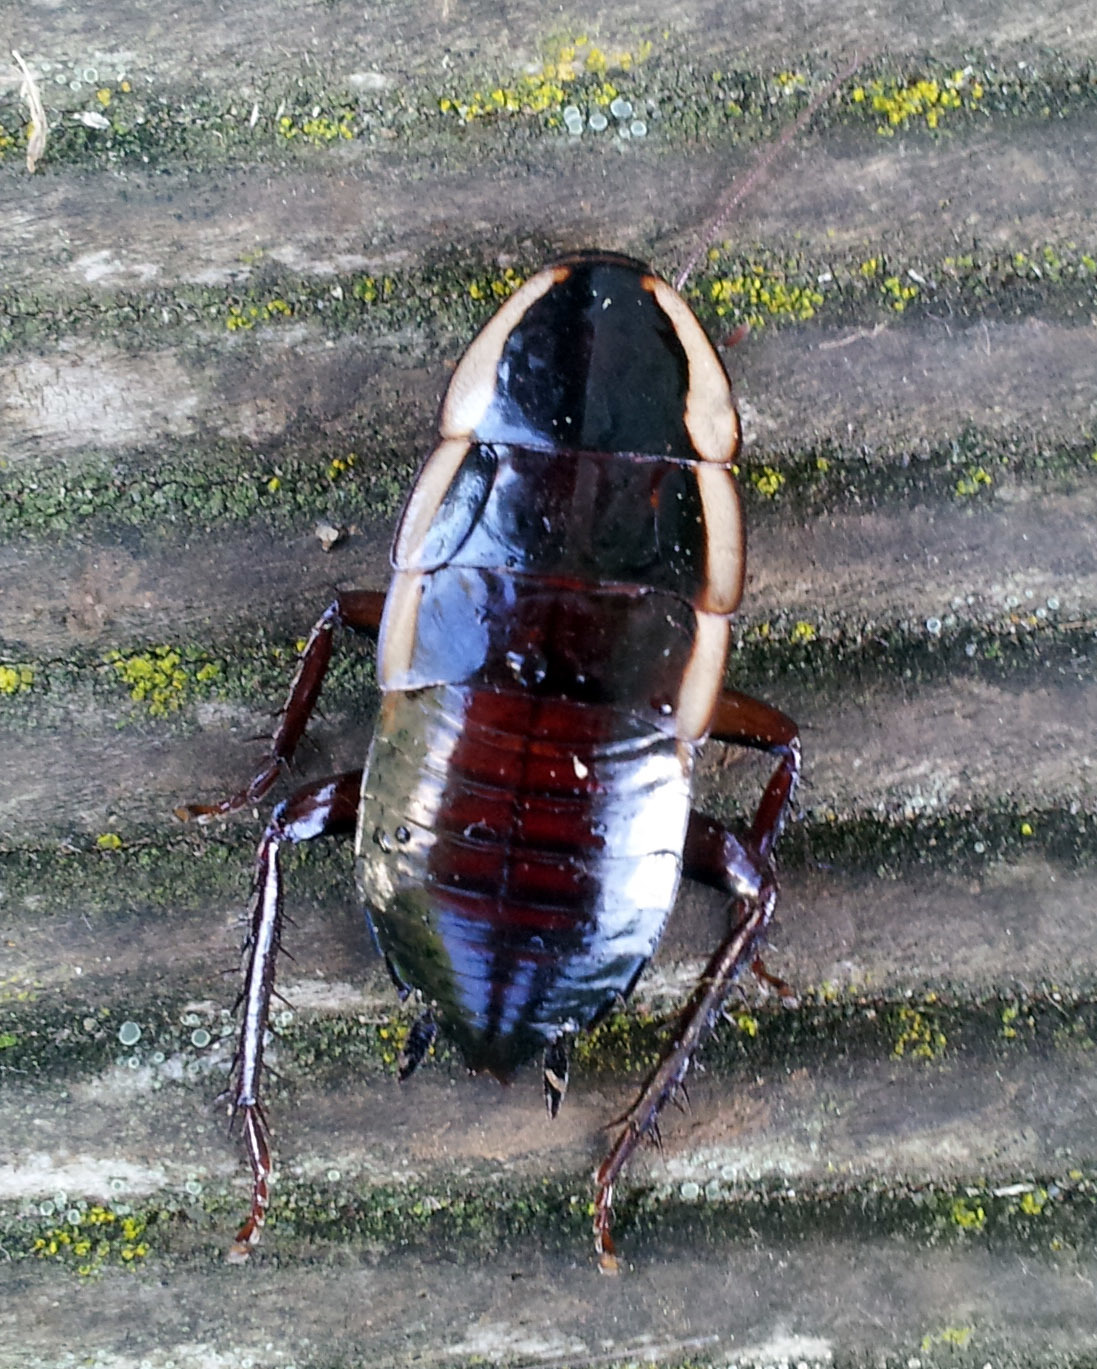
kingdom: Animalia
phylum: Arthropoda
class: Insecta
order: Blattodea
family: Blattidae
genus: Drymaplaneta
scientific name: Drymaplaneta semivitta
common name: Gisborne cockroach
